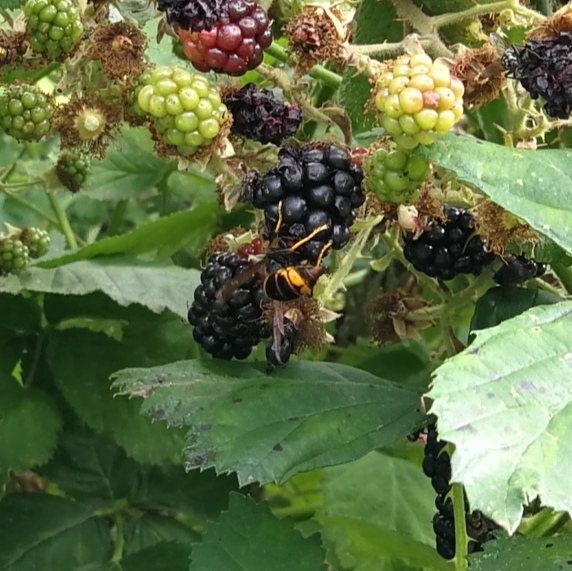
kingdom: Animalia
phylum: Arthropoda
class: Insecta
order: Hymenoptera
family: Vespidae
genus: Vespa
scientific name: Vespa velutina
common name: Asian hornet
